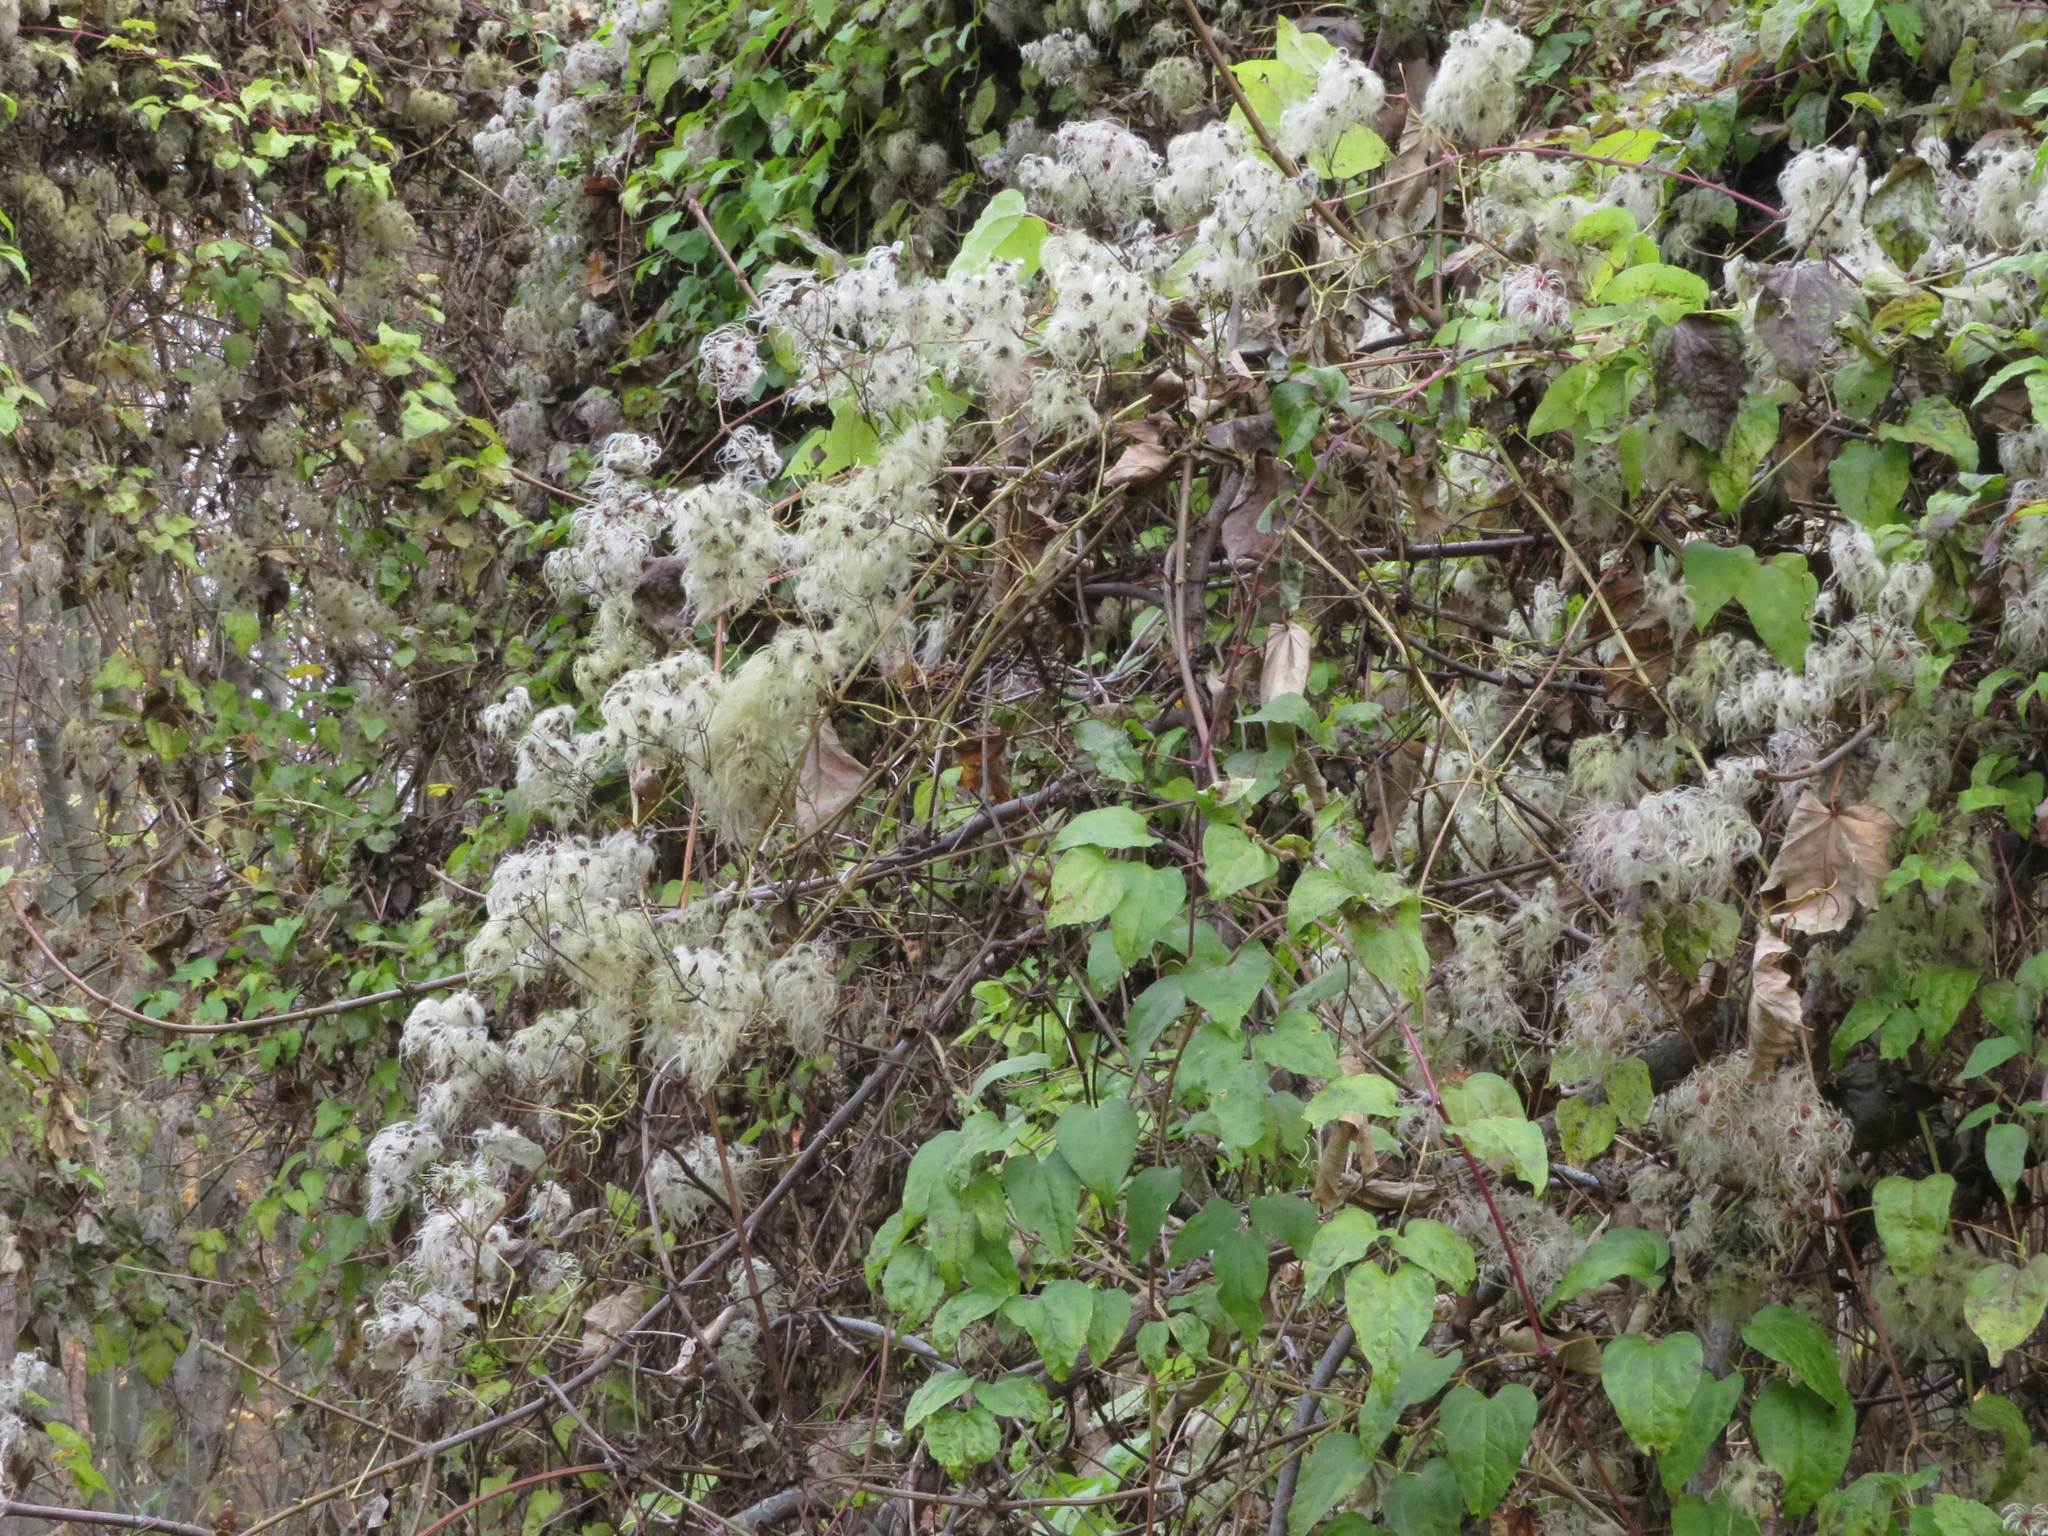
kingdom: Plantae
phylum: Tracheophyta
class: Magnoliopsida
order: Ranunculales
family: Ranunculaceae
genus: Clematis
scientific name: Clematis vitalba
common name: Evergreen clematis
